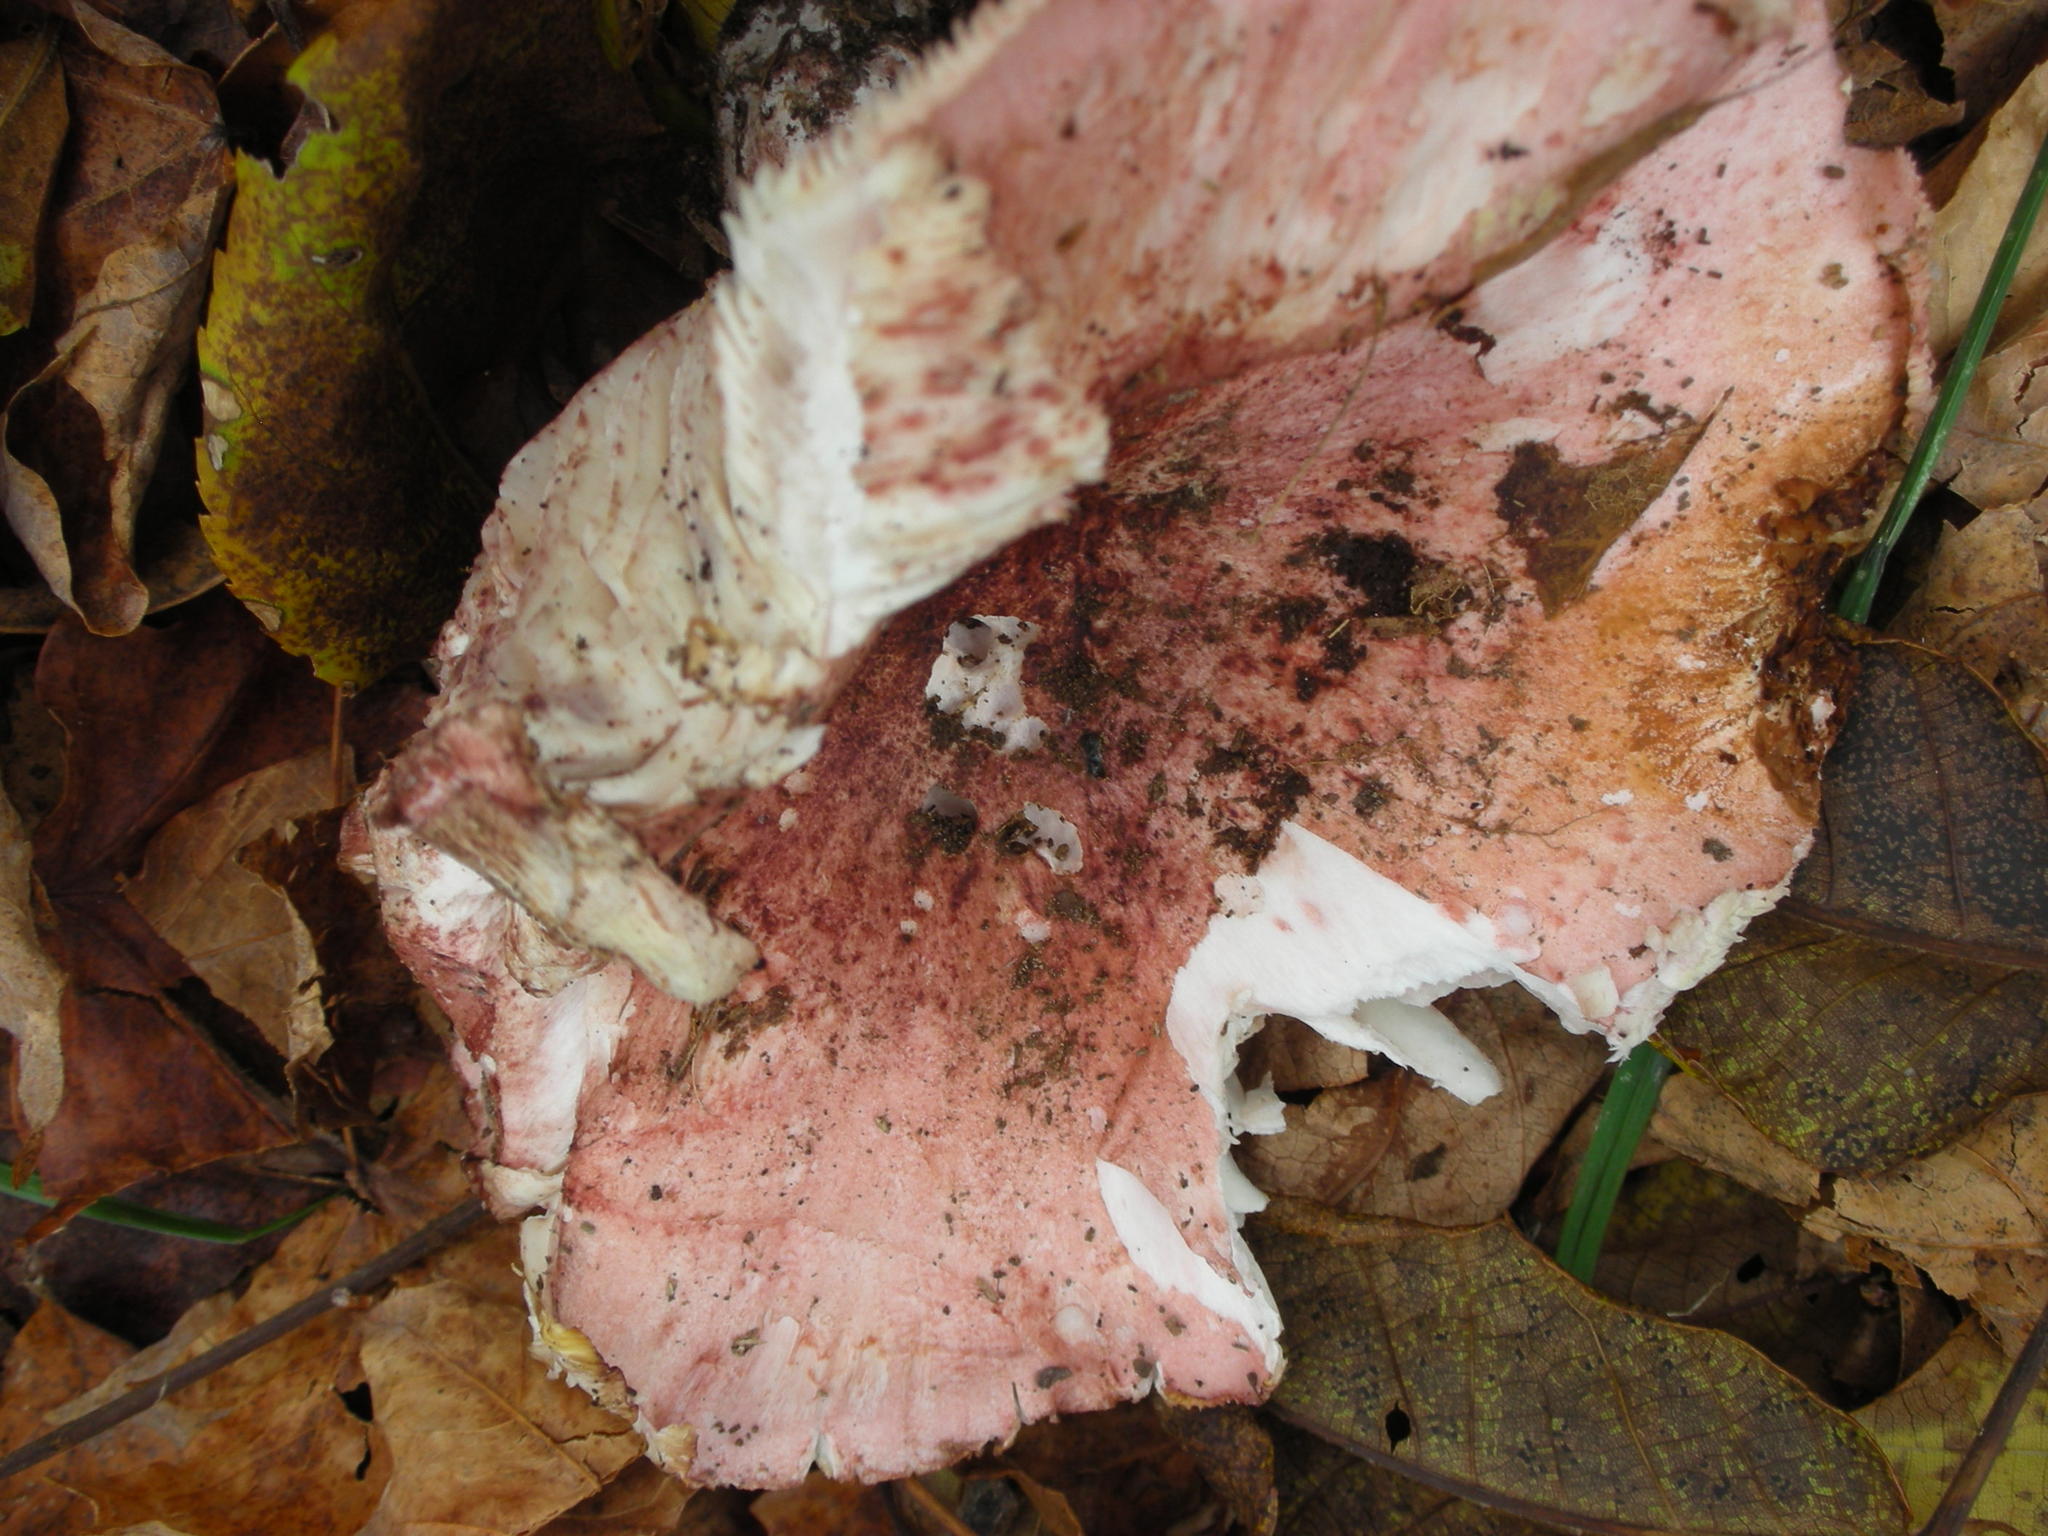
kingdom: Fungi
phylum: Basidiomycota
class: Agaricomycetes
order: Agaricales
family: Hygrophoraceae
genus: Hygrophorus
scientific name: Hygrophorus russula
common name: Pinkmottle woodwax
